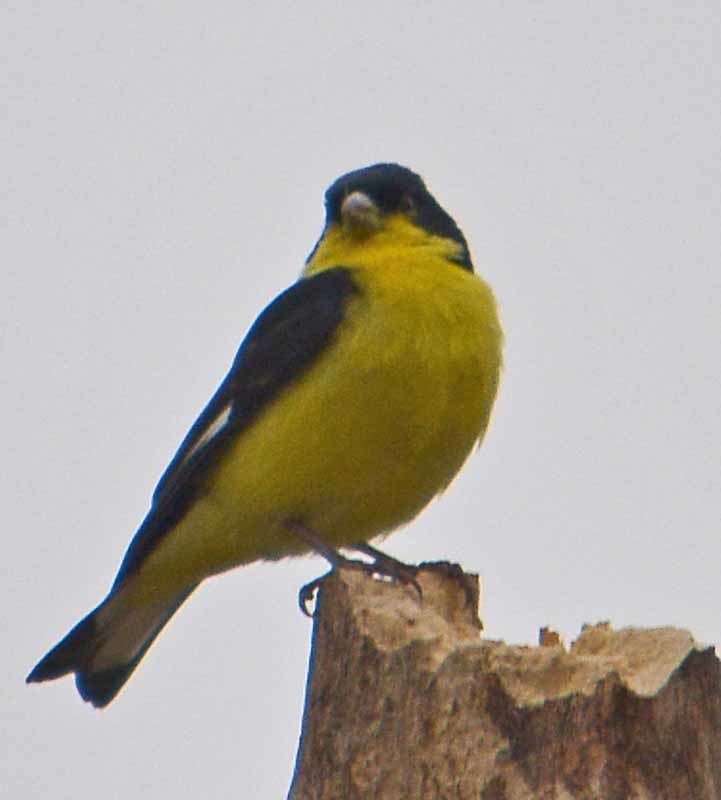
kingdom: Animalia
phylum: Chordata
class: Aves
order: Passeriformes
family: Fringillidae
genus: Spinus
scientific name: Spinus psaltria
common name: Lesser goldfinch
